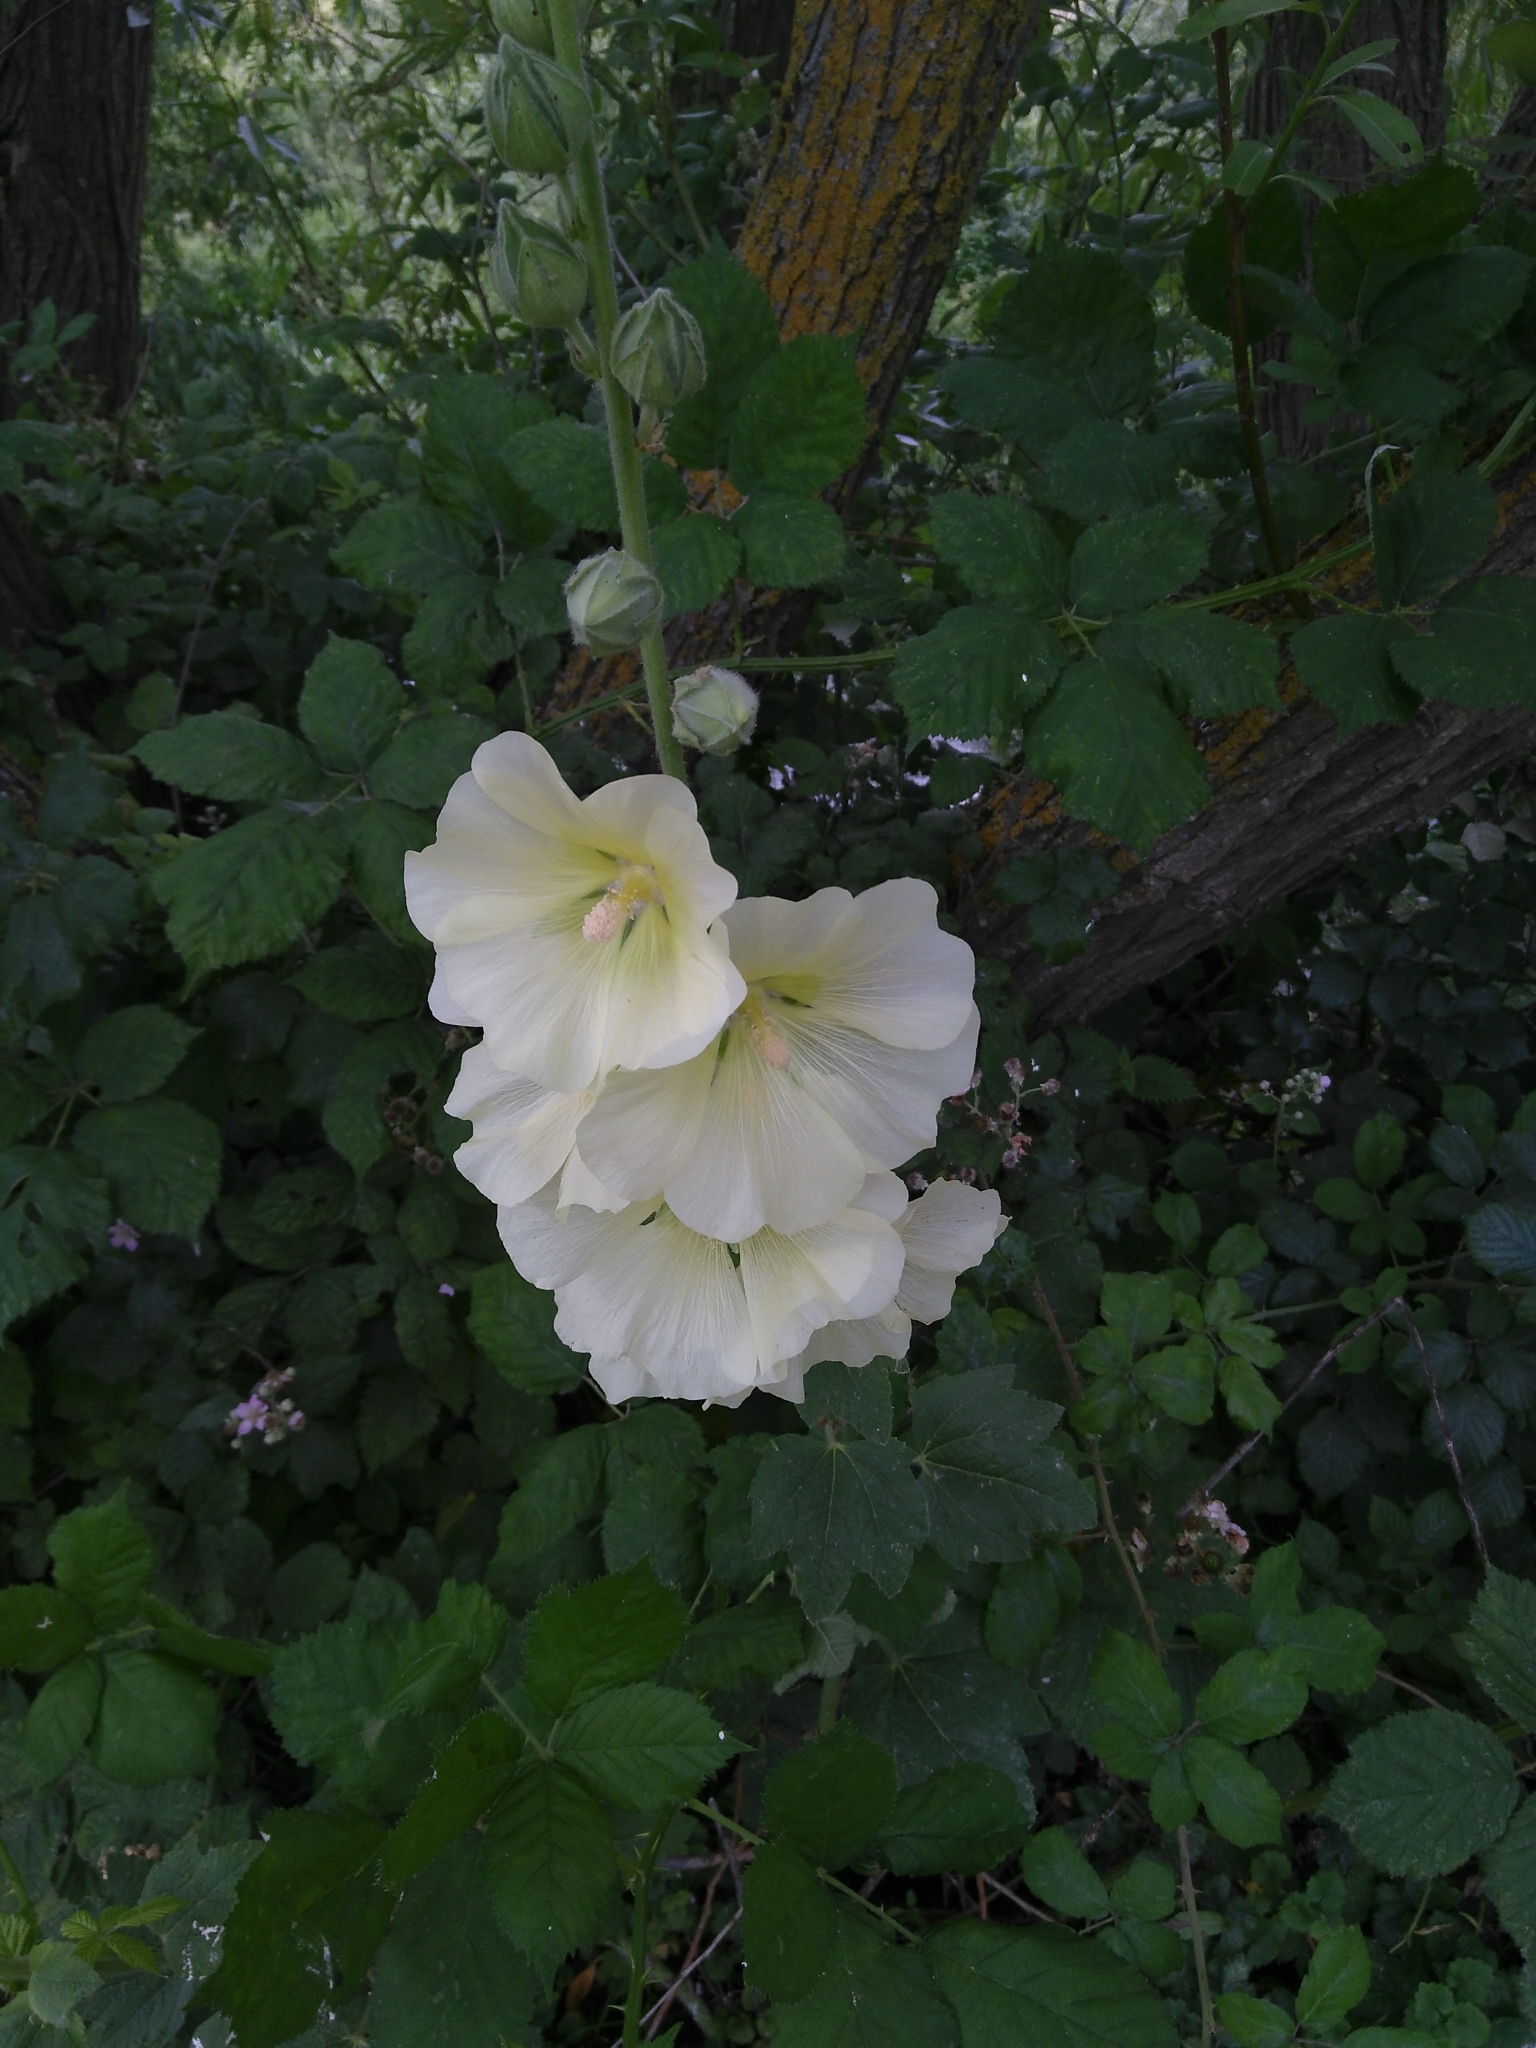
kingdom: Plantae
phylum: Tracheophyta
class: Magnoliopsida
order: Malvales
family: Malvaceae
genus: Alcea
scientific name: Alcea rosea
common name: Hollyhock
